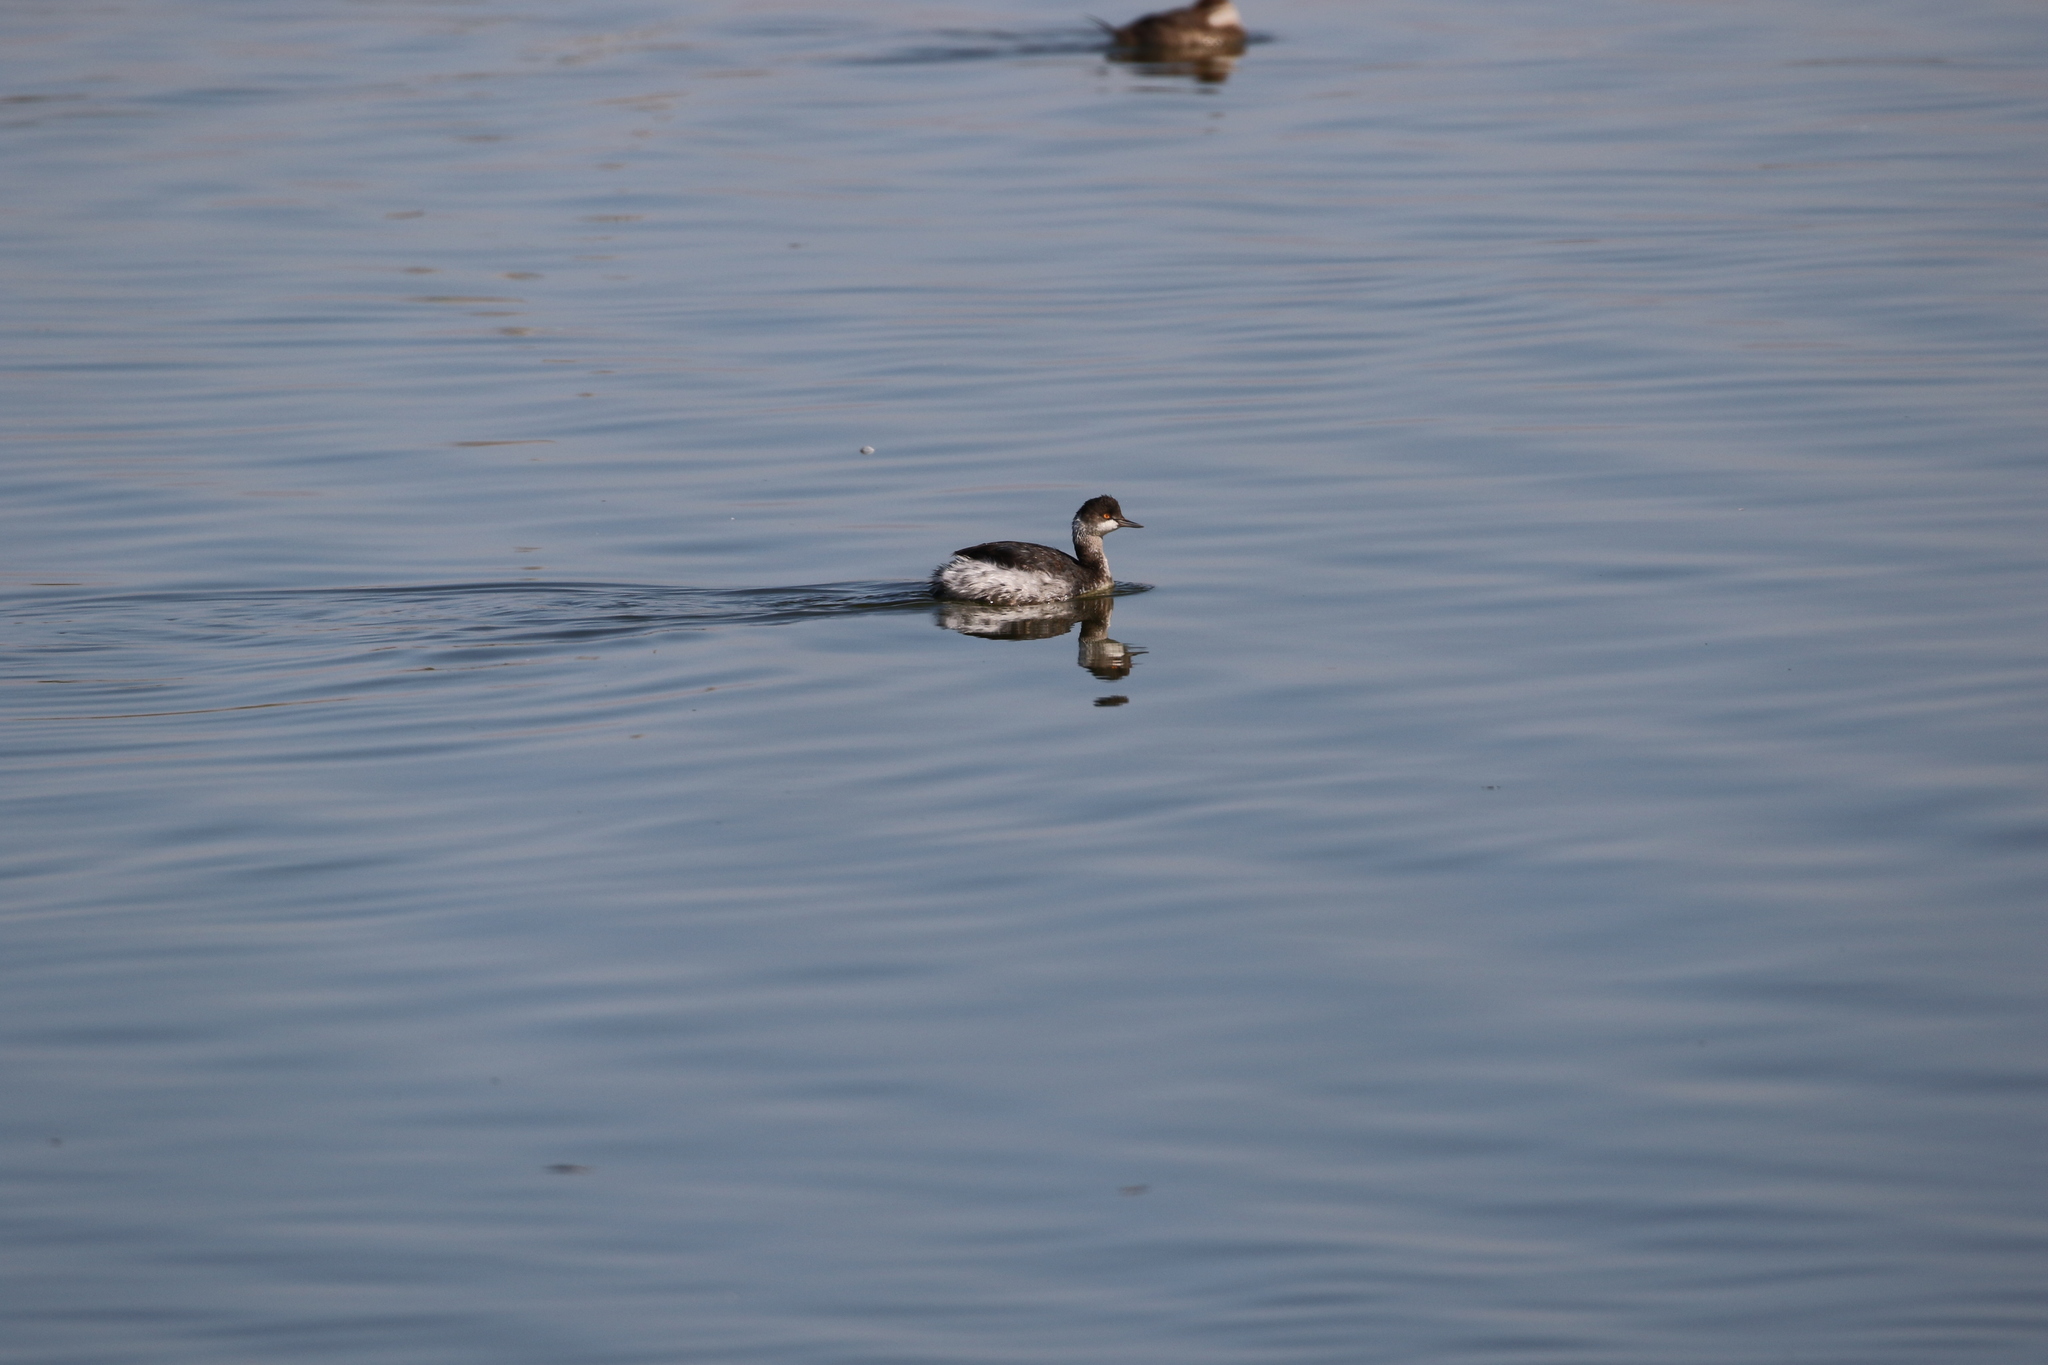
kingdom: Animalia
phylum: Chordata
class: Aves
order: Podicipediformes
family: Podicipedidae
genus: Podiceps
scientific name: Podiceps nigricollis
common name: Black-necked grebe
